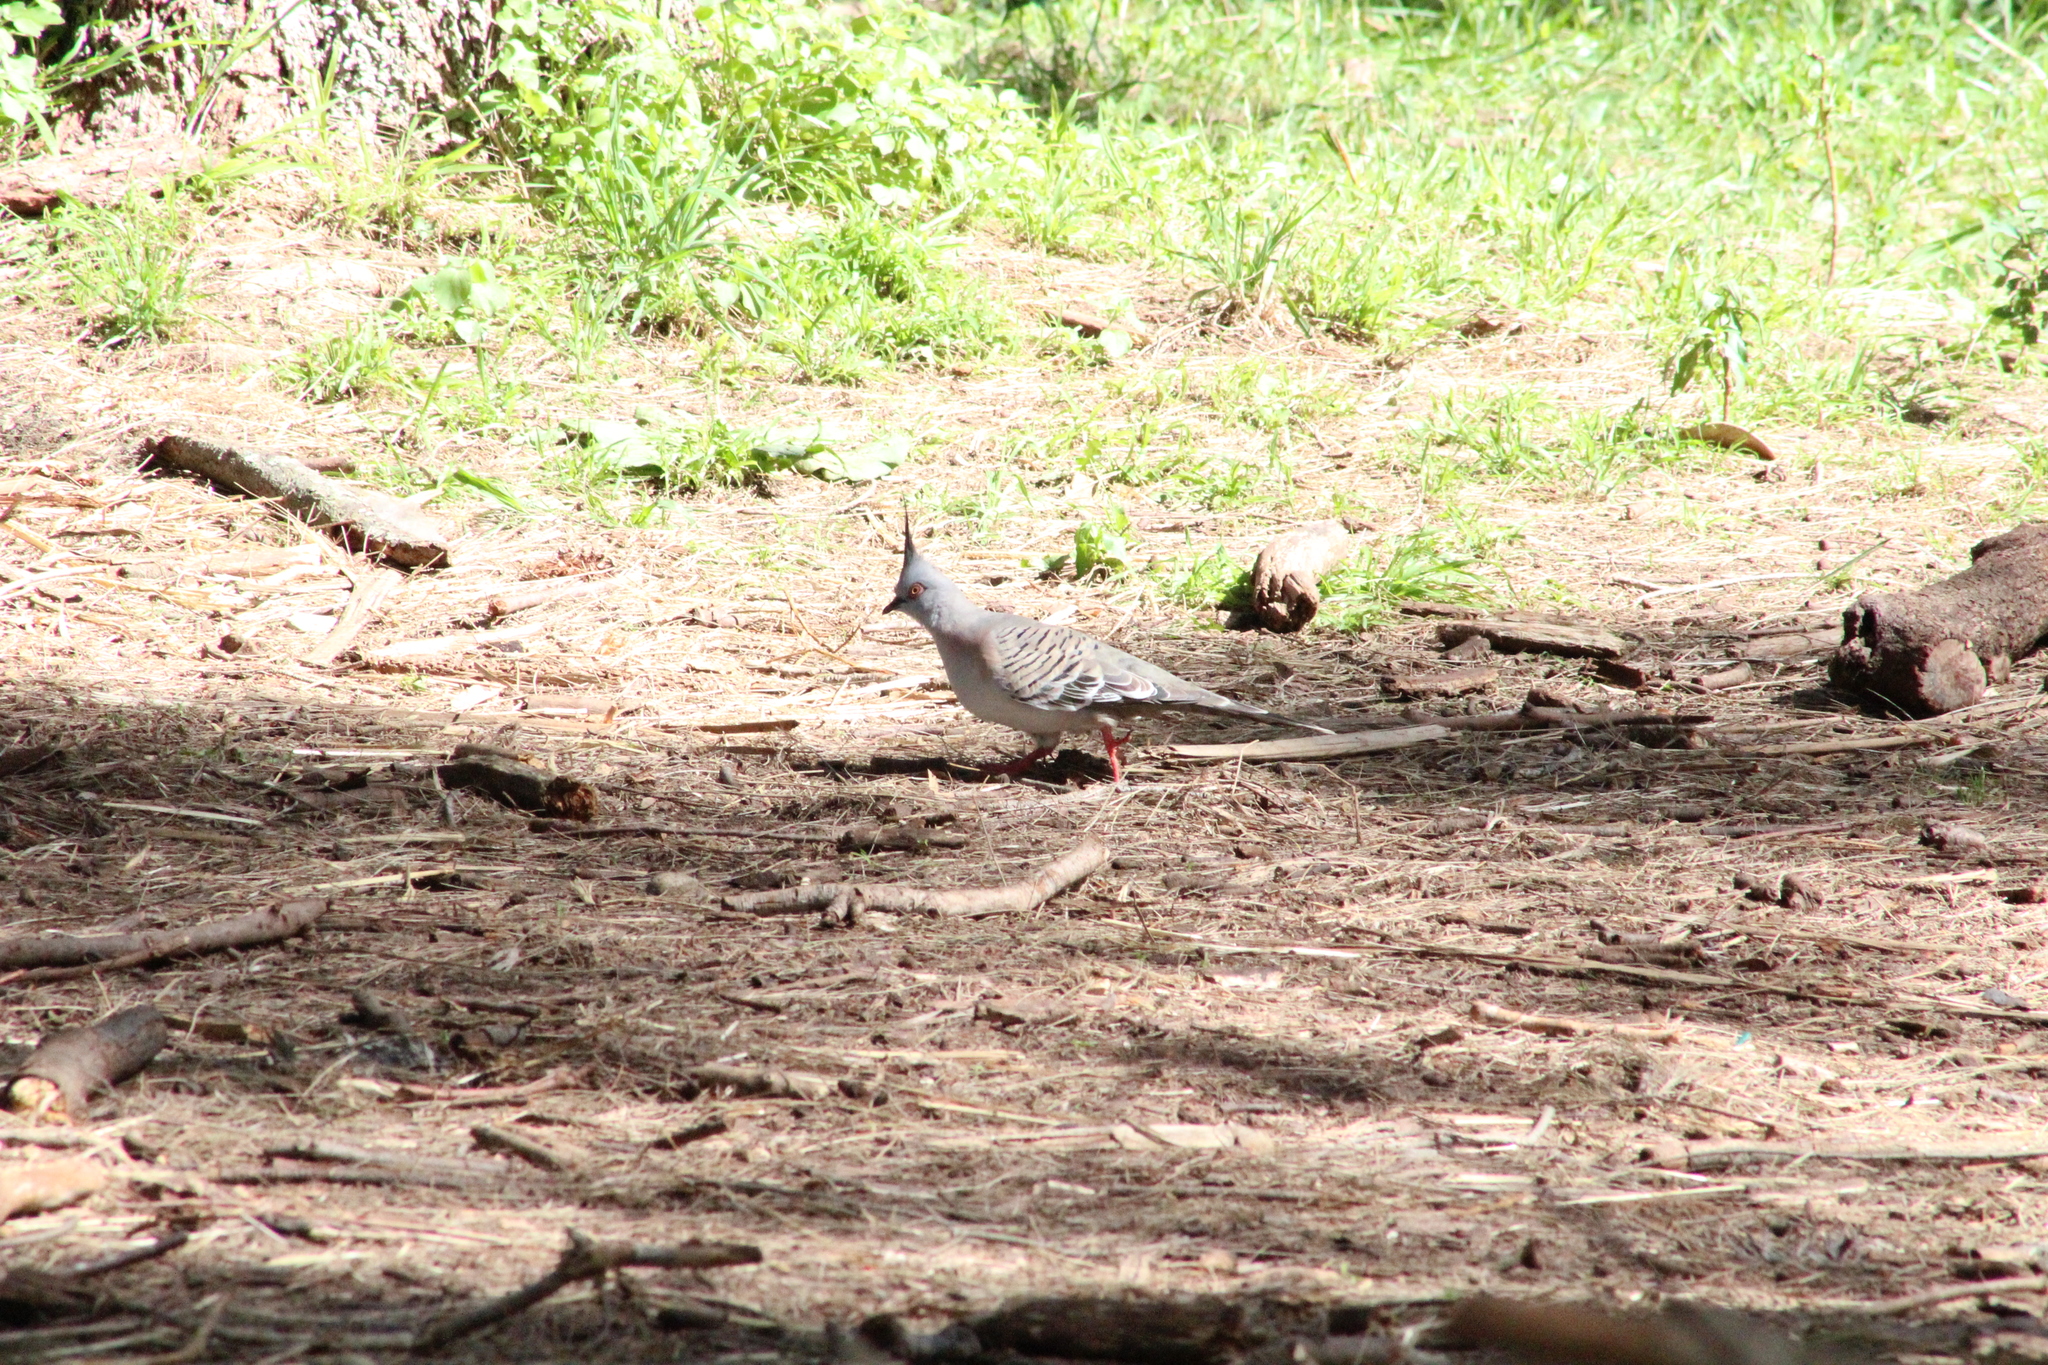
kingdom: Animalia
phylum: Chordata
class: Aves
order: Columbiformes
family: Columbidae
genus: Ocyphaps
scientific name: Ocyphaps lophotes
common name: Crested pigeon
